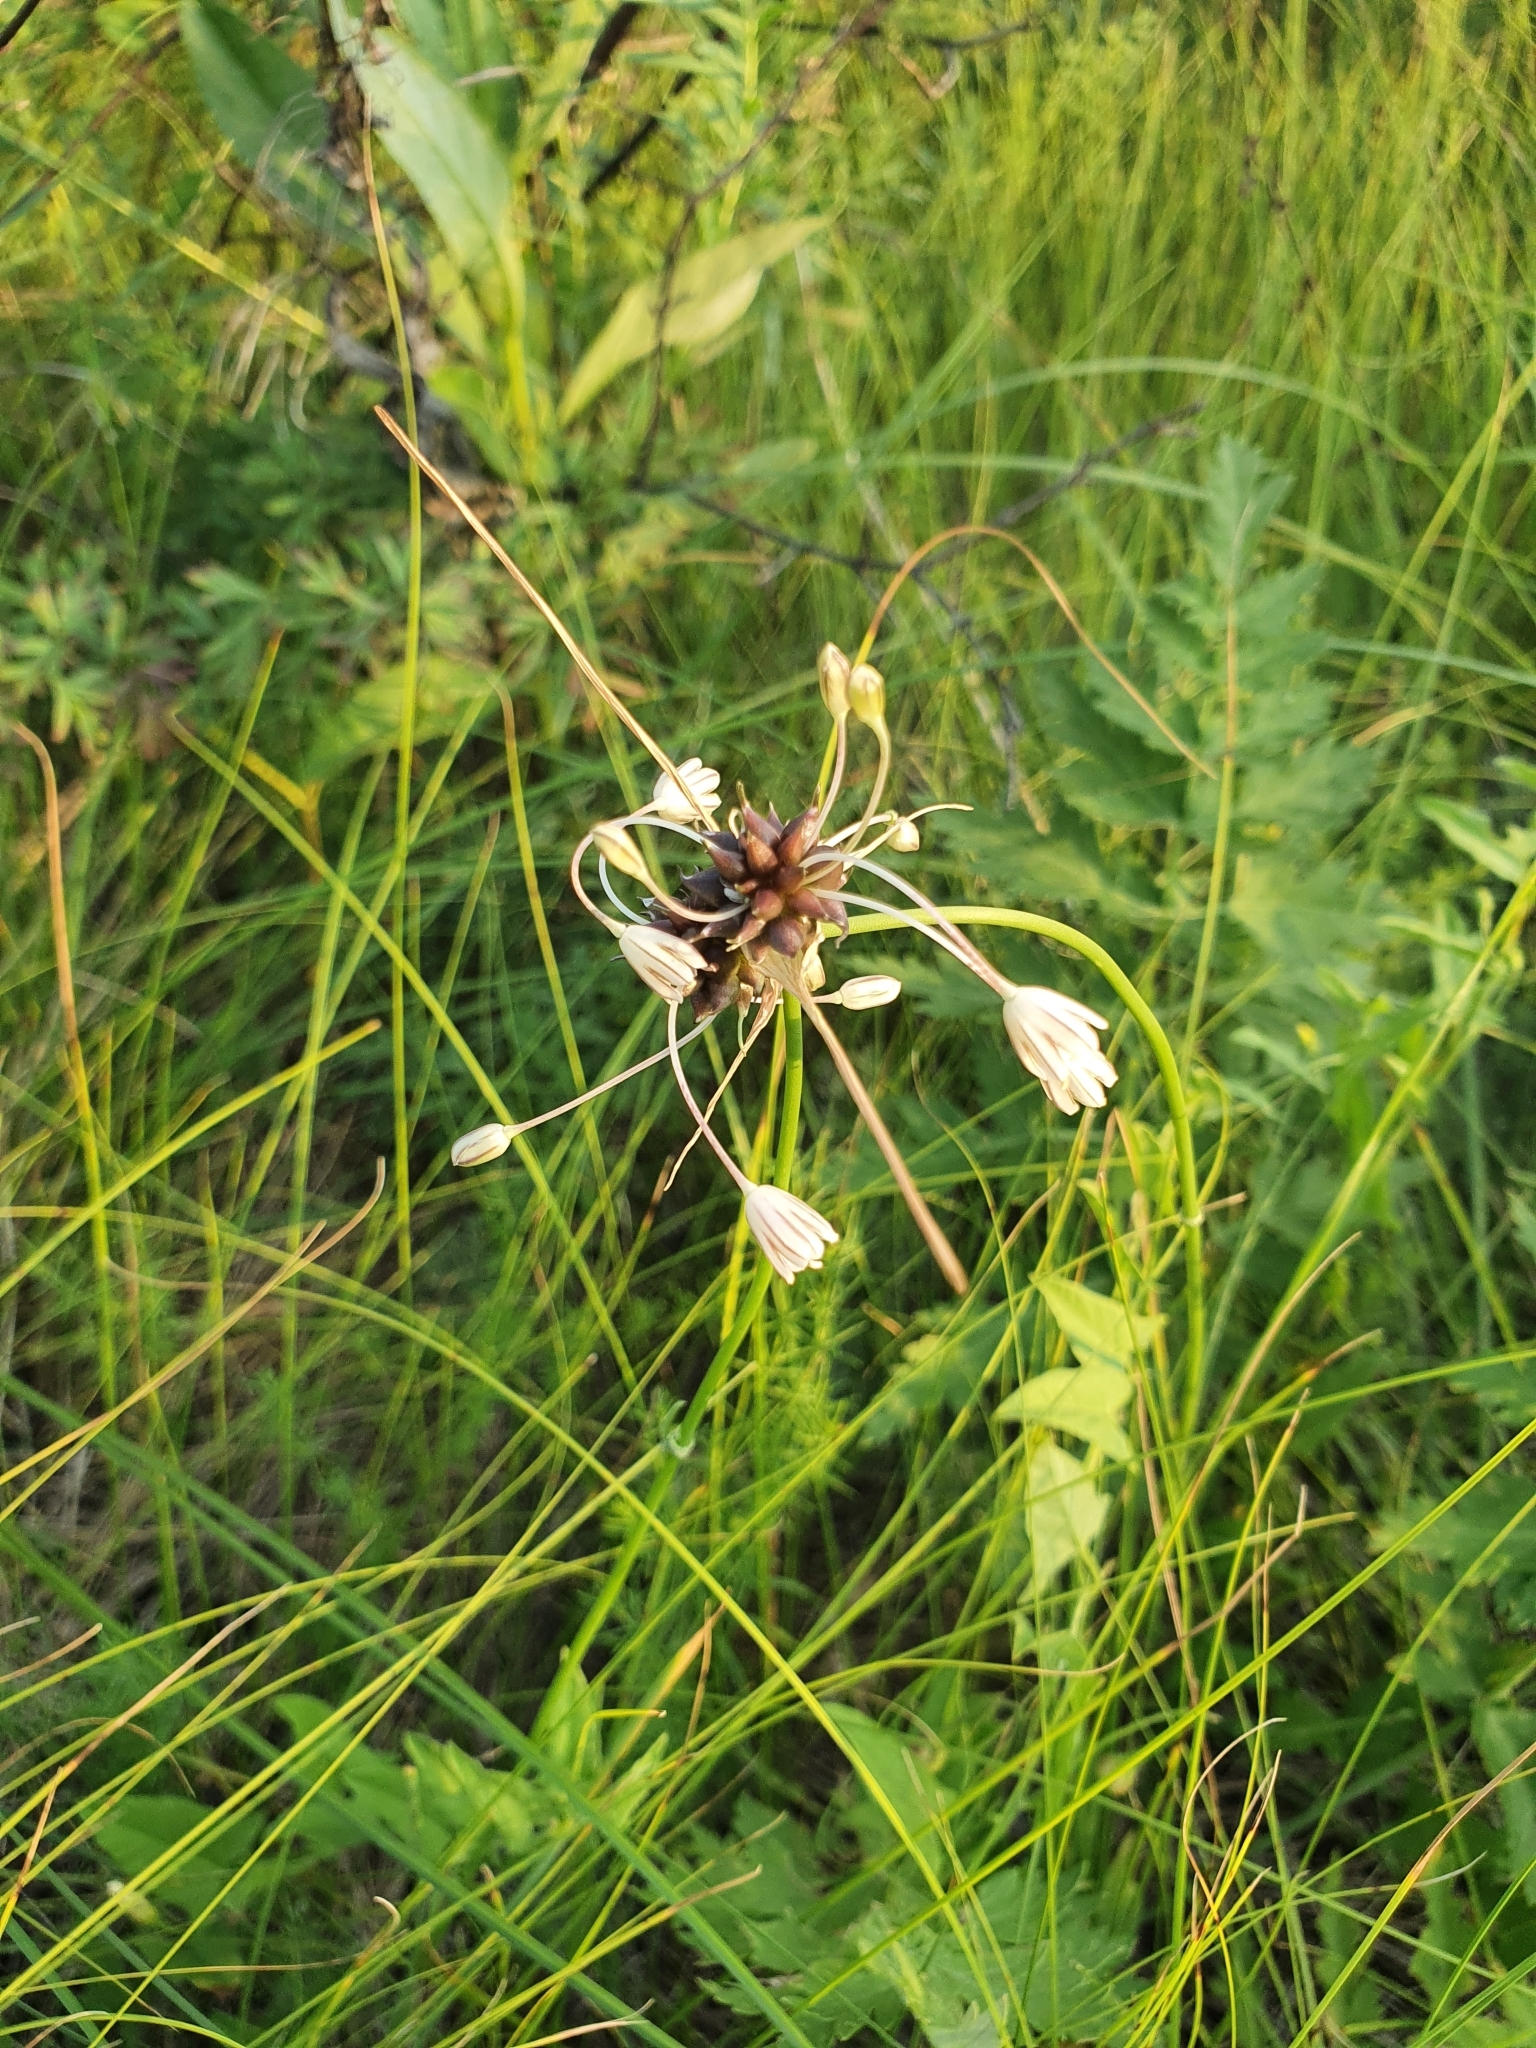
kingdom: Plantae
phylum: Tracheophyta
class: Liliopsida
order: Asparagales
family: Amaryllidaceae
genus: Allium
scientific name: Allium oleraceum
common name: Field garlic
